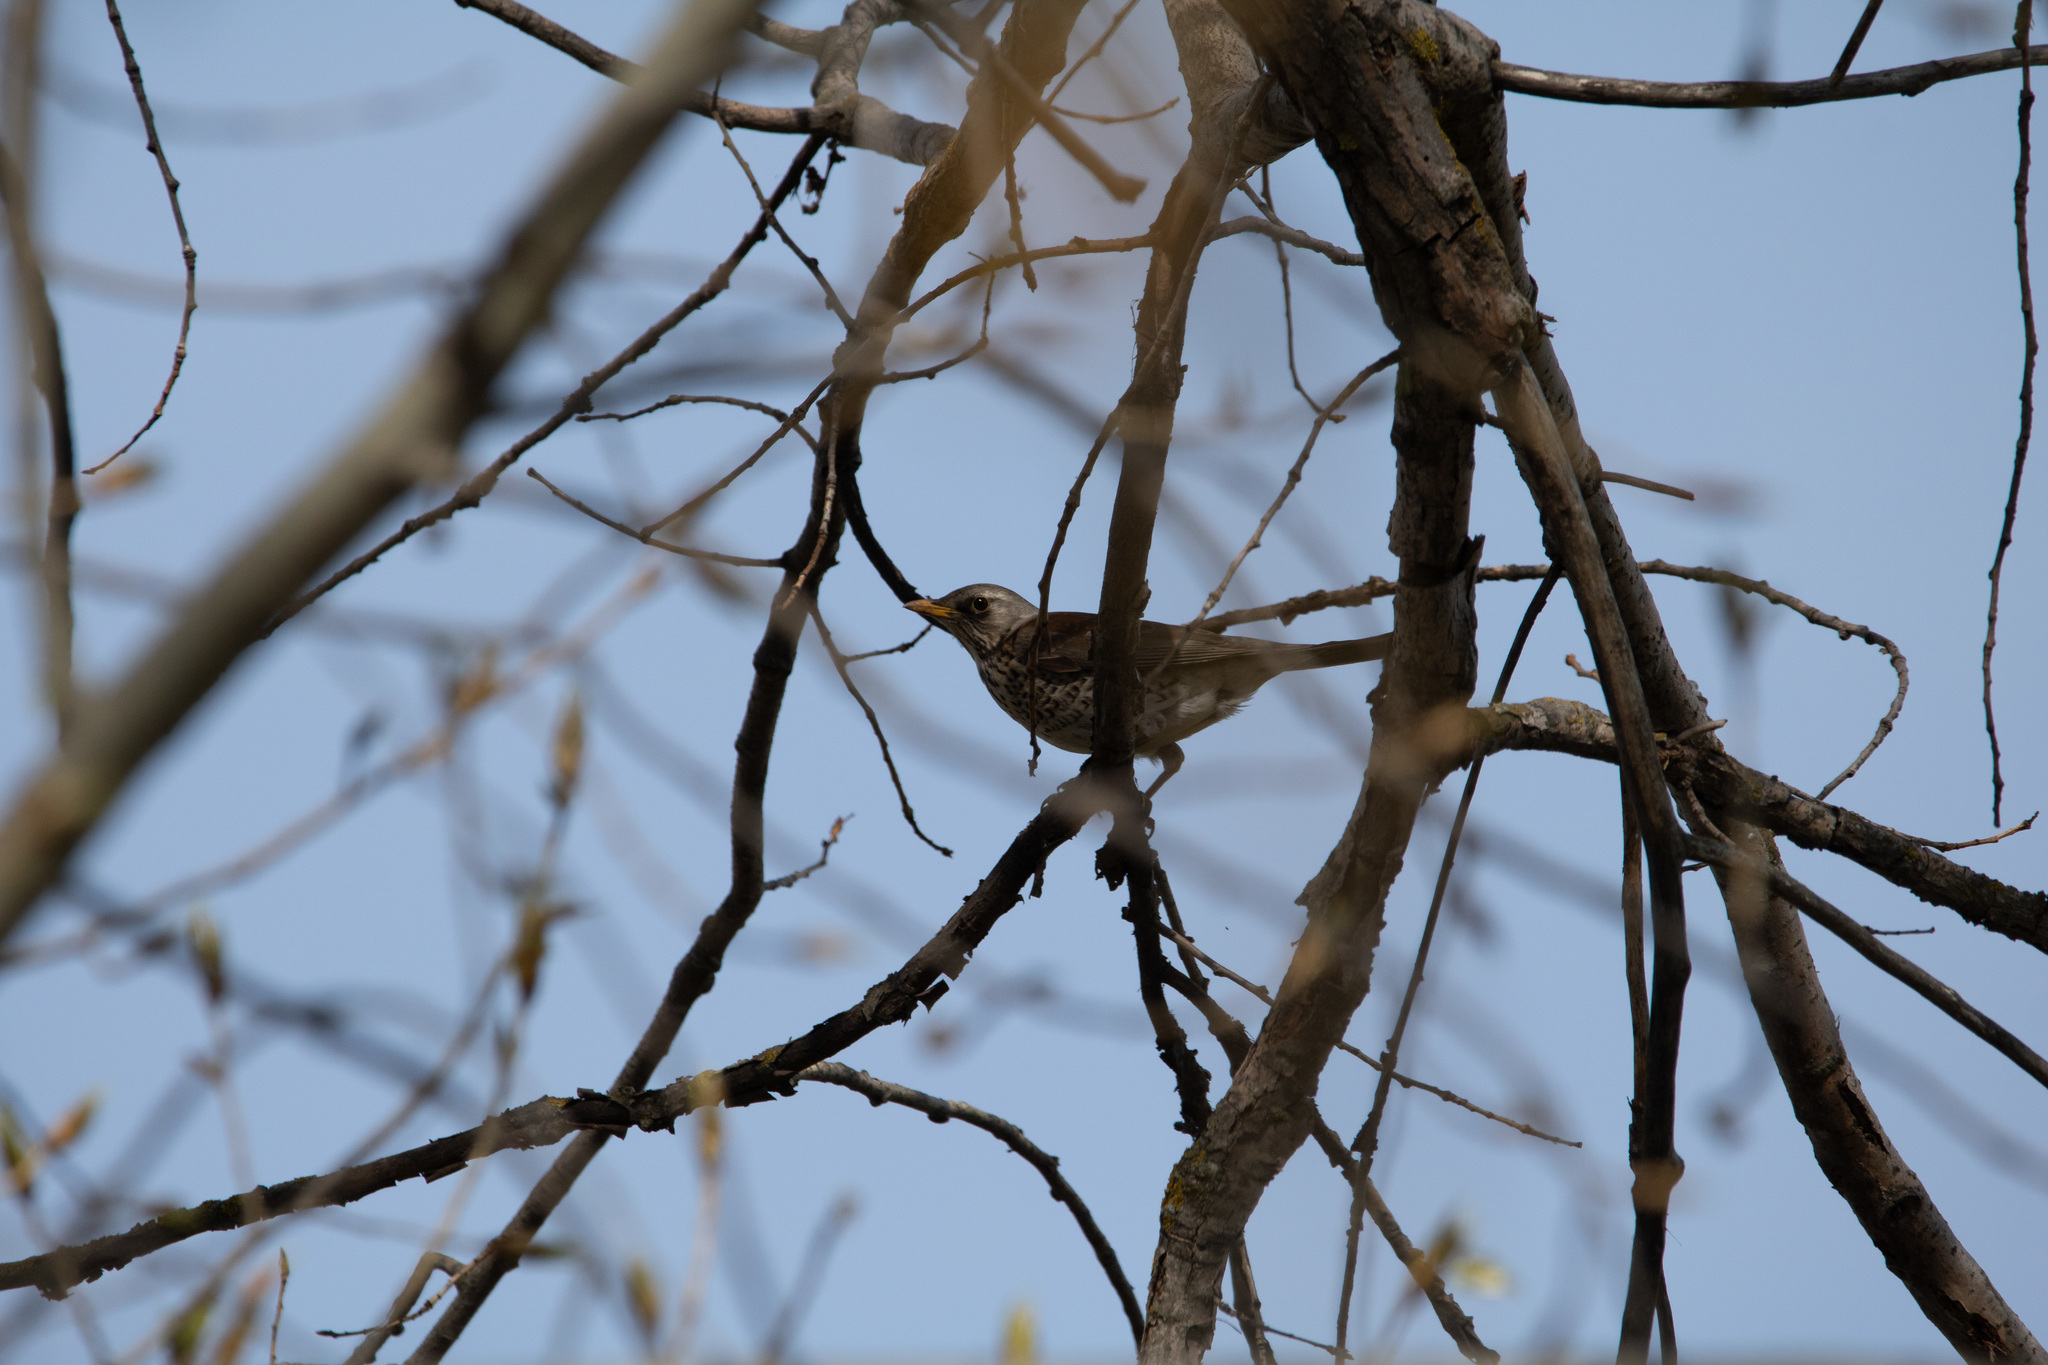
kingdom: Animalia
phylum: Chordata
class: Aves
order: Passeriformes
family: Turdidae
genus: Turdus
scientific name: Turdus pilaris
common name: Fieldfare
